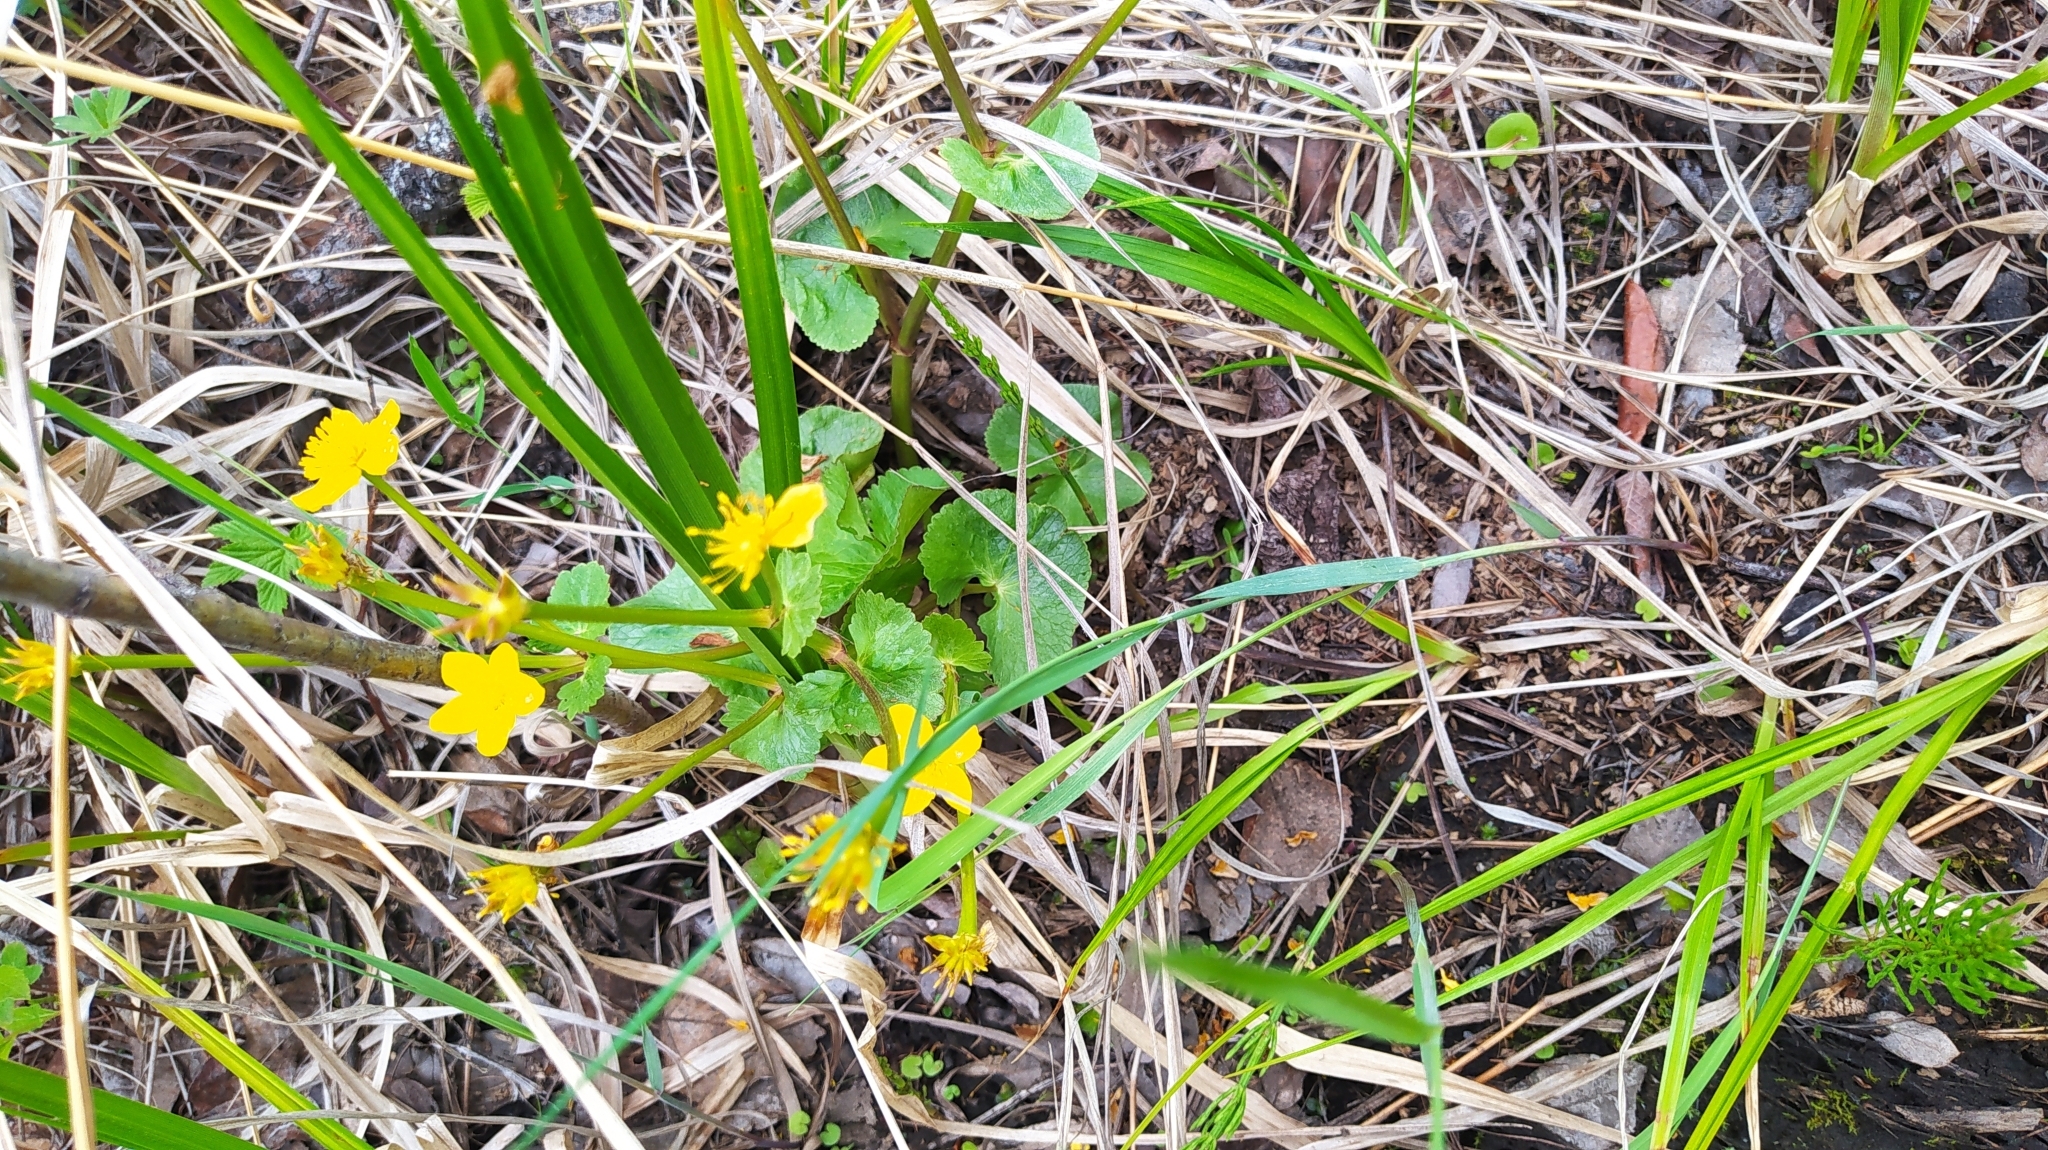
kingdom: Plantae
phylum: Tracheophyta
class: Magnoliopsida
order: Ranunculales
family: Ranunculaceae
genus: Caltha
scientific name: Caltha palustris
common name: Marsh marigold
